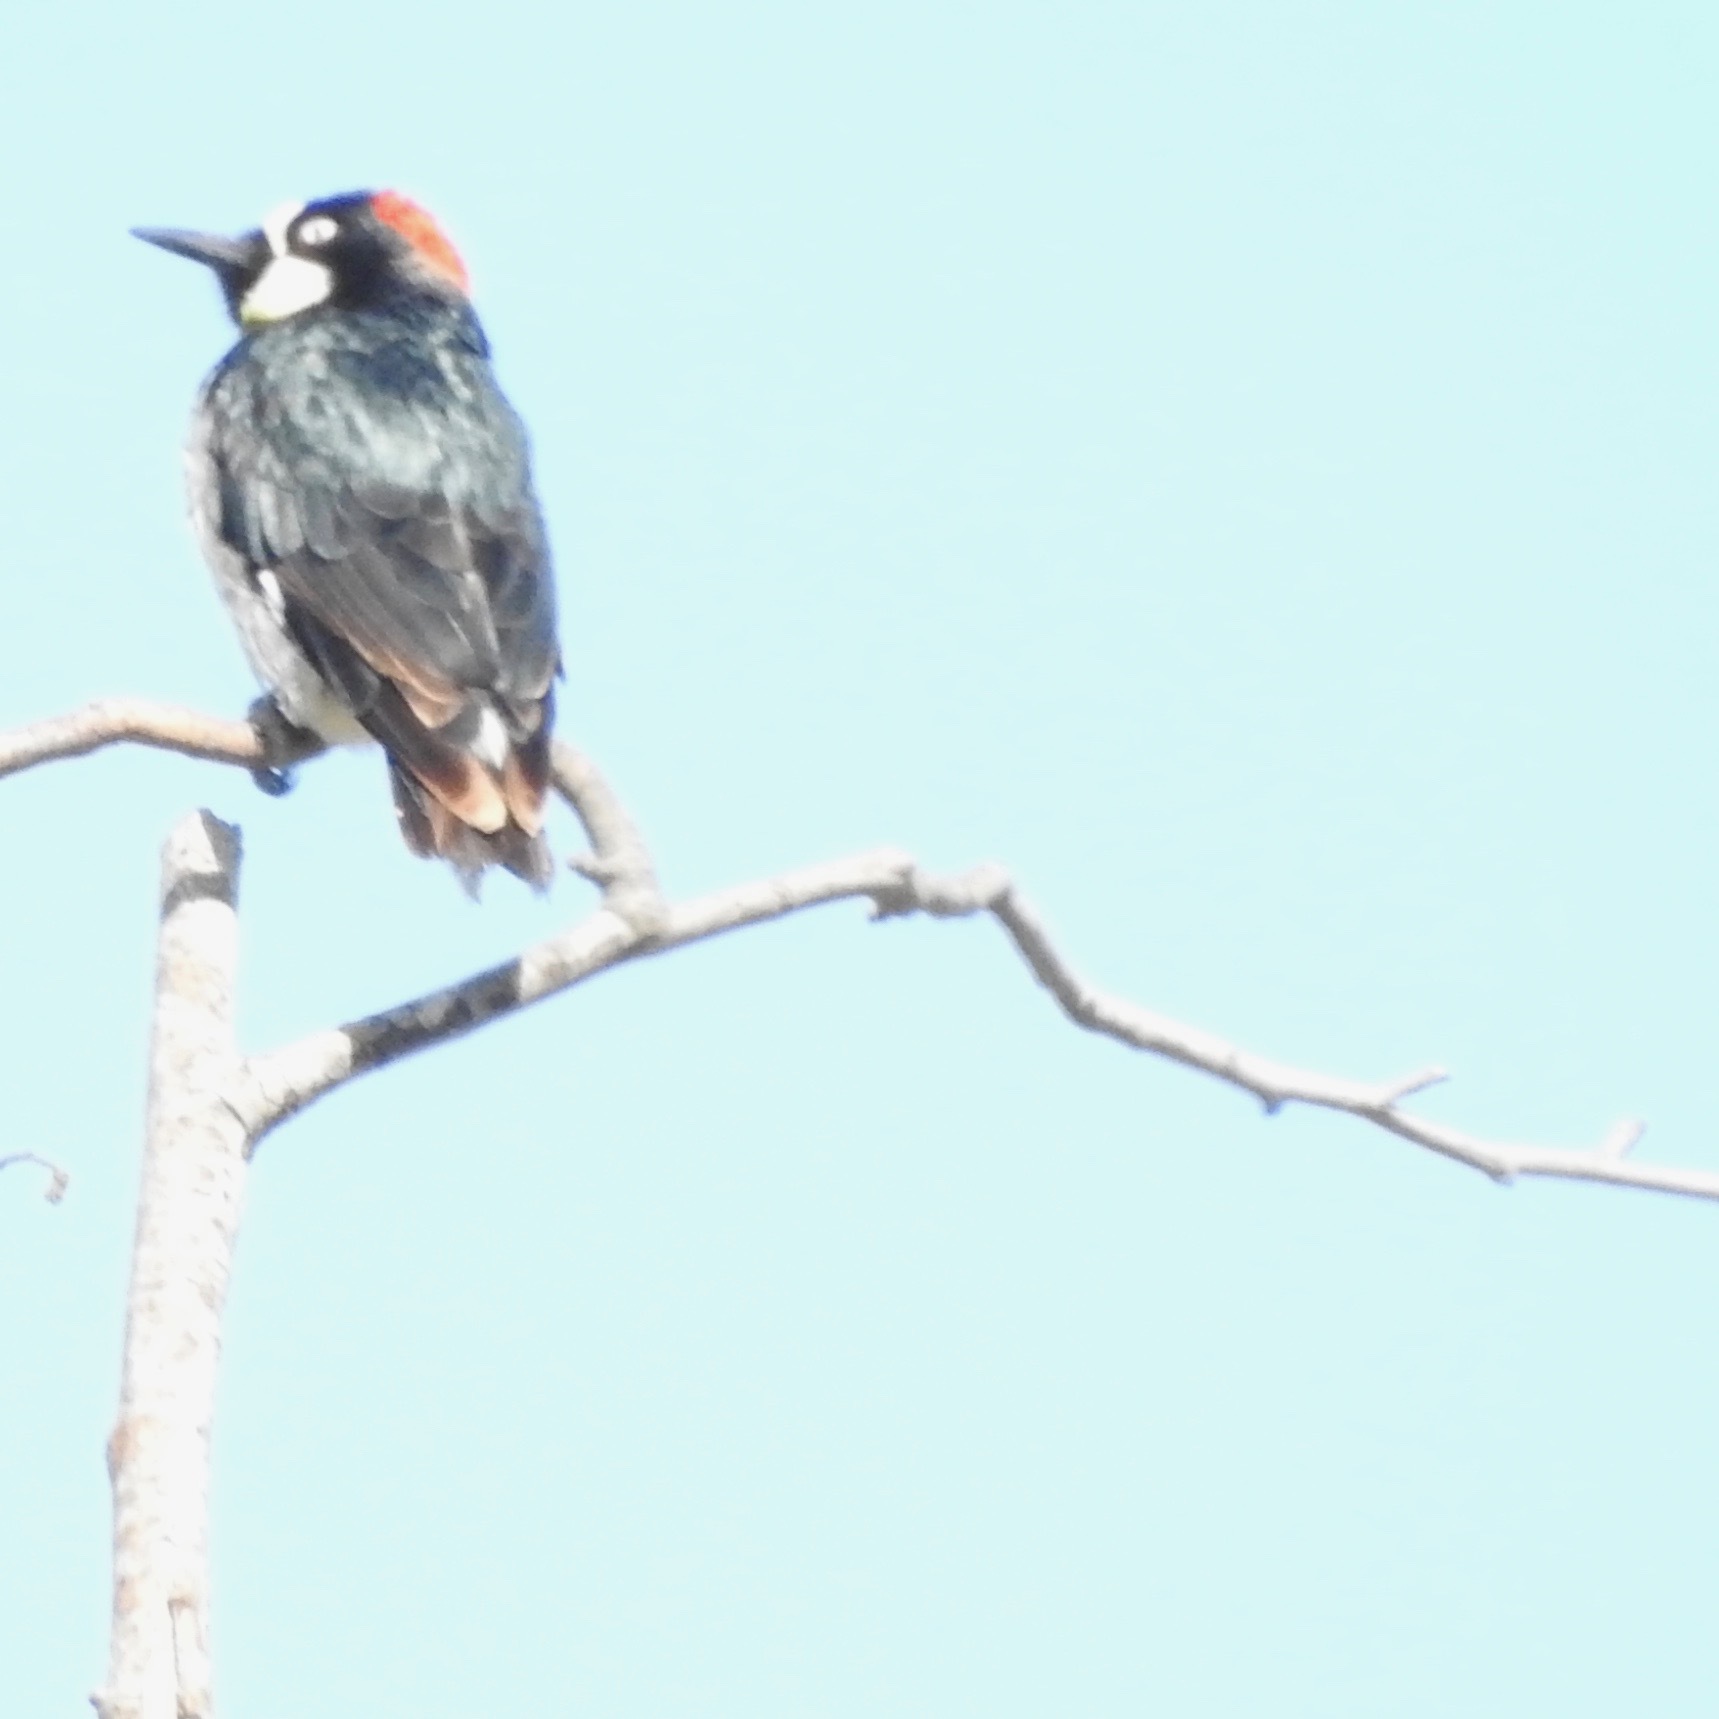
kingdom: Animalia
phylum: Chordata
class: Aves
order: Piciformes
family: Picidae
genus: Melanerpes
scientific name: Melanerpes formicivorus
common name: Acorn woodpecker
